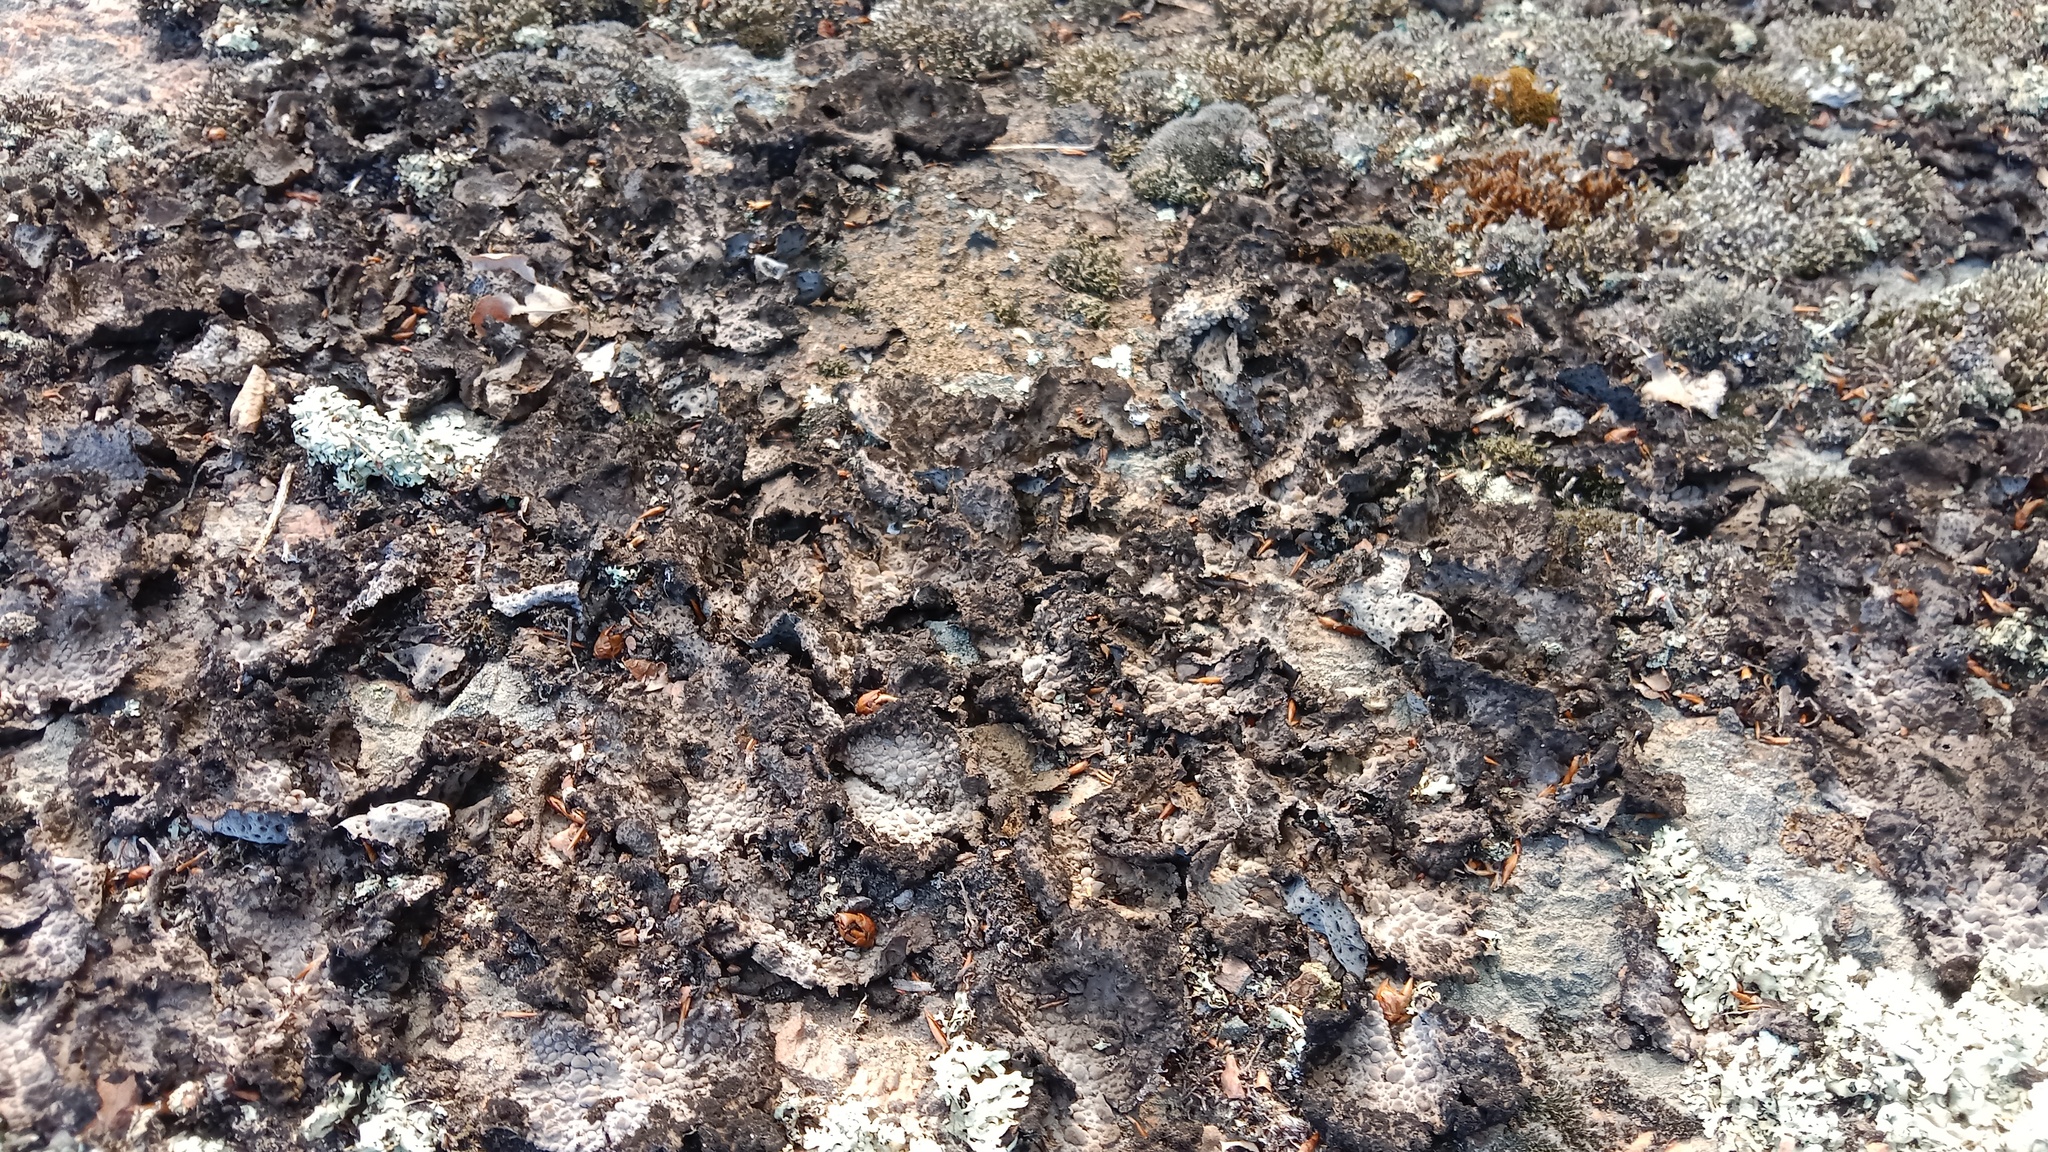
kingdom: Fungi
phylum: Ascomycota
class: Lecanoromycetes
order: Umbilicariales
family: Umbilicariaceae
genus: Lasallia
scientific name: Lasallia pustulata
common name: Blistered toadskin lichen
